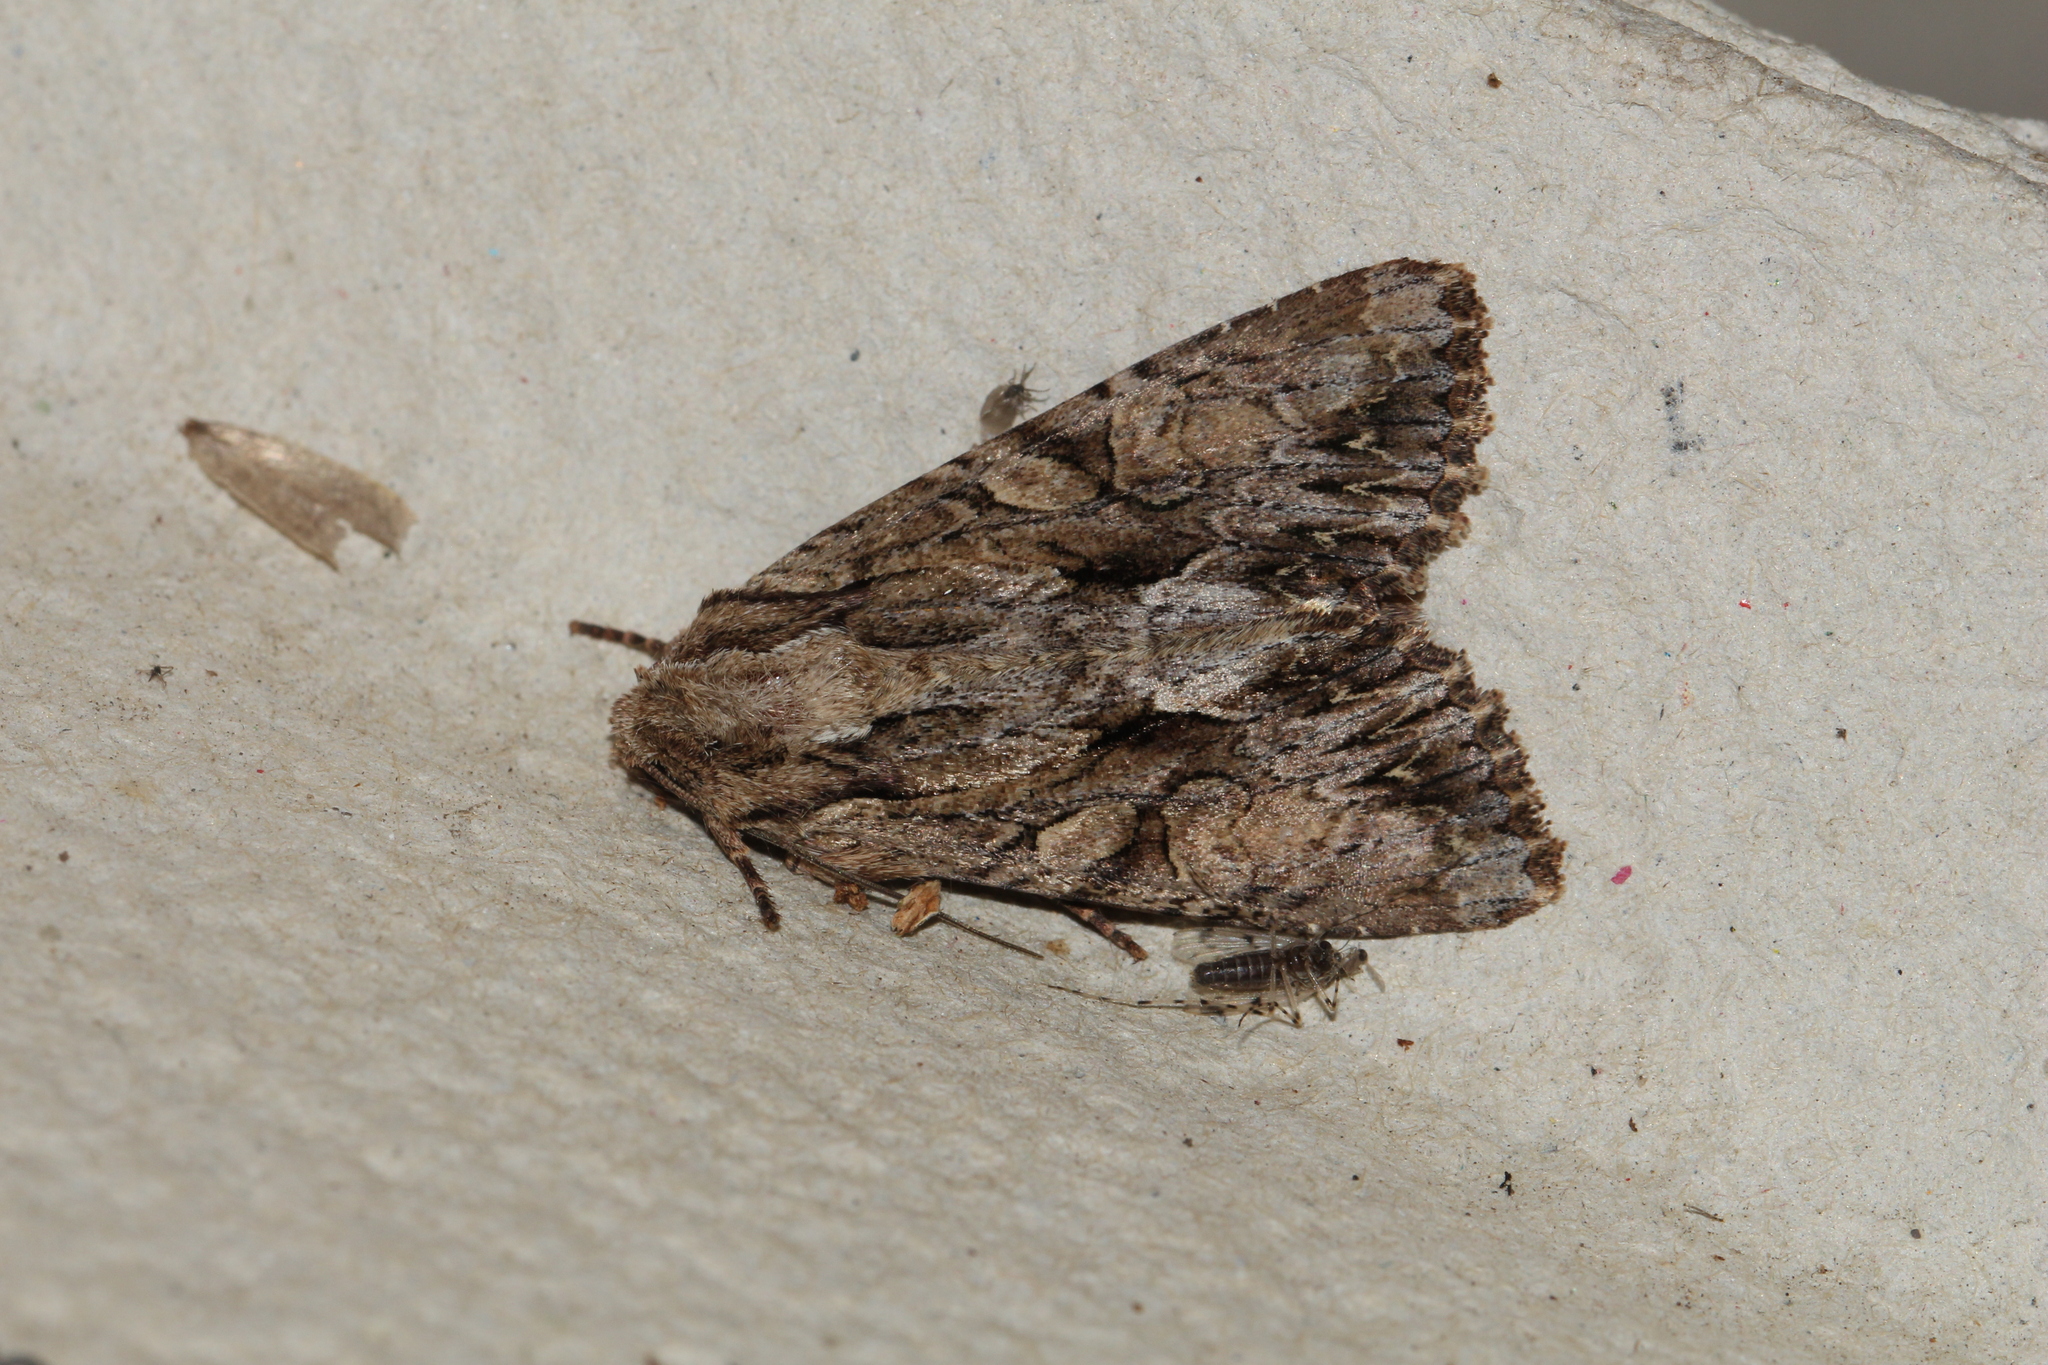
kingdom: Animalia
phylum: Arthropoda
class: Insecta
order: Lepidoptera
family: Noctuidae
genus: Apamea
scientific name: Apamea monoglypha
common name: Dark arches
